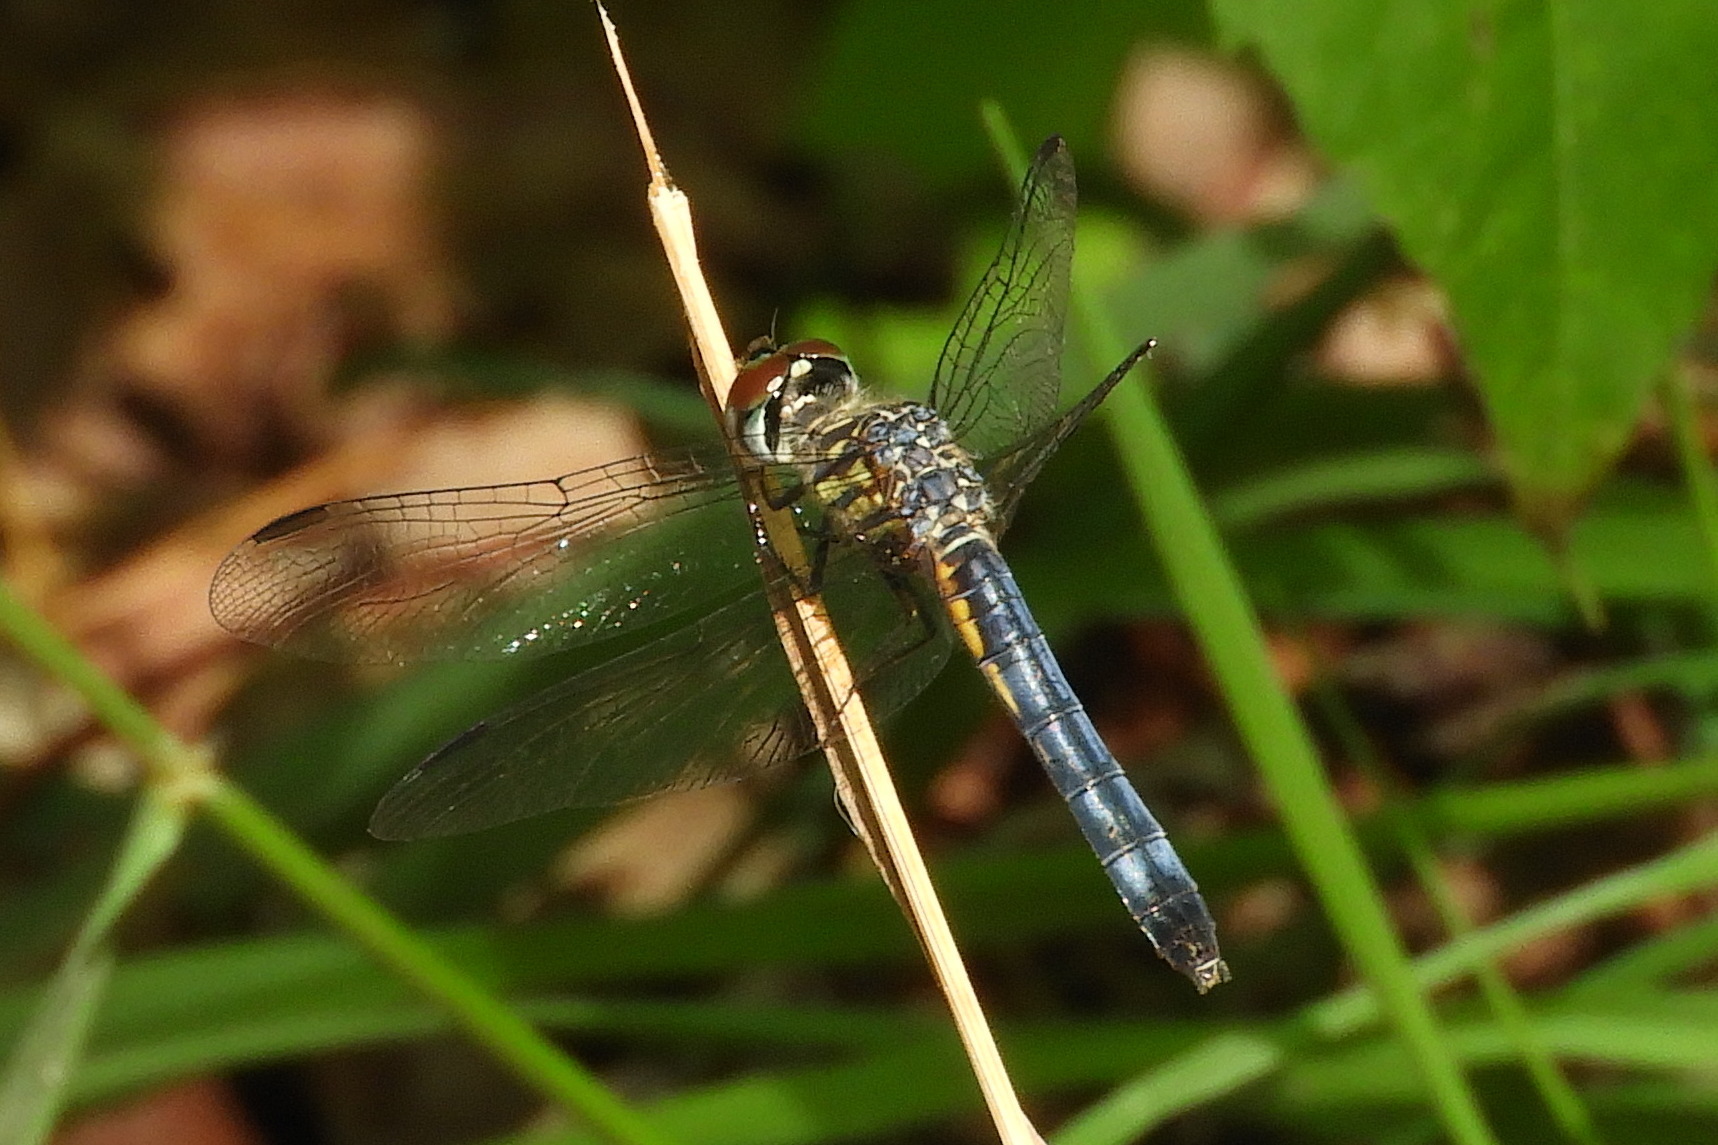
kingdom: Animalia
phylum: Arthropoda
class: Insecta
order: Odonata
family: Libellulidae
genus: Pachydiplax
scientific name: Pachydiplax longipennis
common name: Blue dasher
